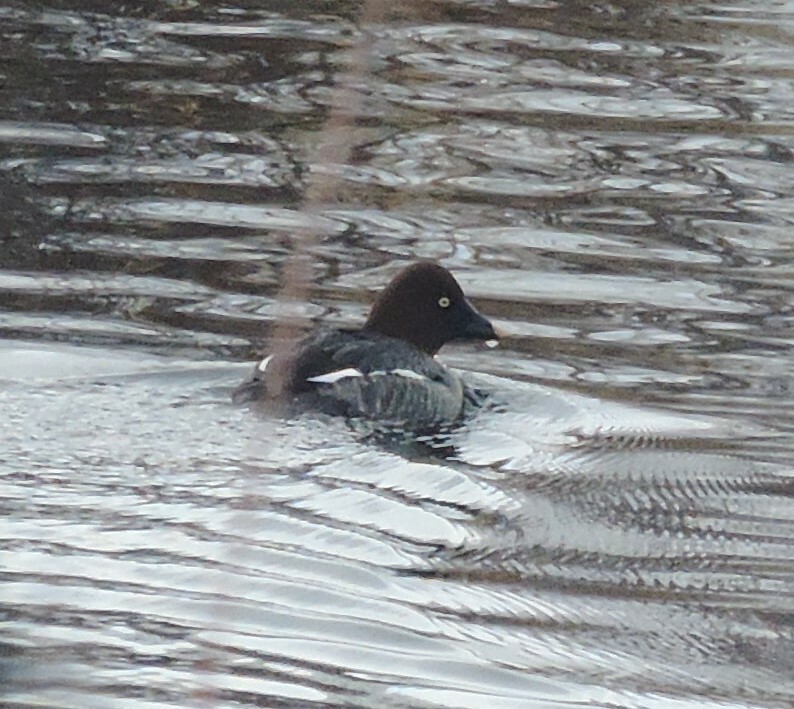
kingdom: Animalia
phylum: Chordata
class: Aves
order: Anseriformes
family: Anatidae
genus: Bucephala
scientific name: Bucephala clangula
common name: Common goldeneye
